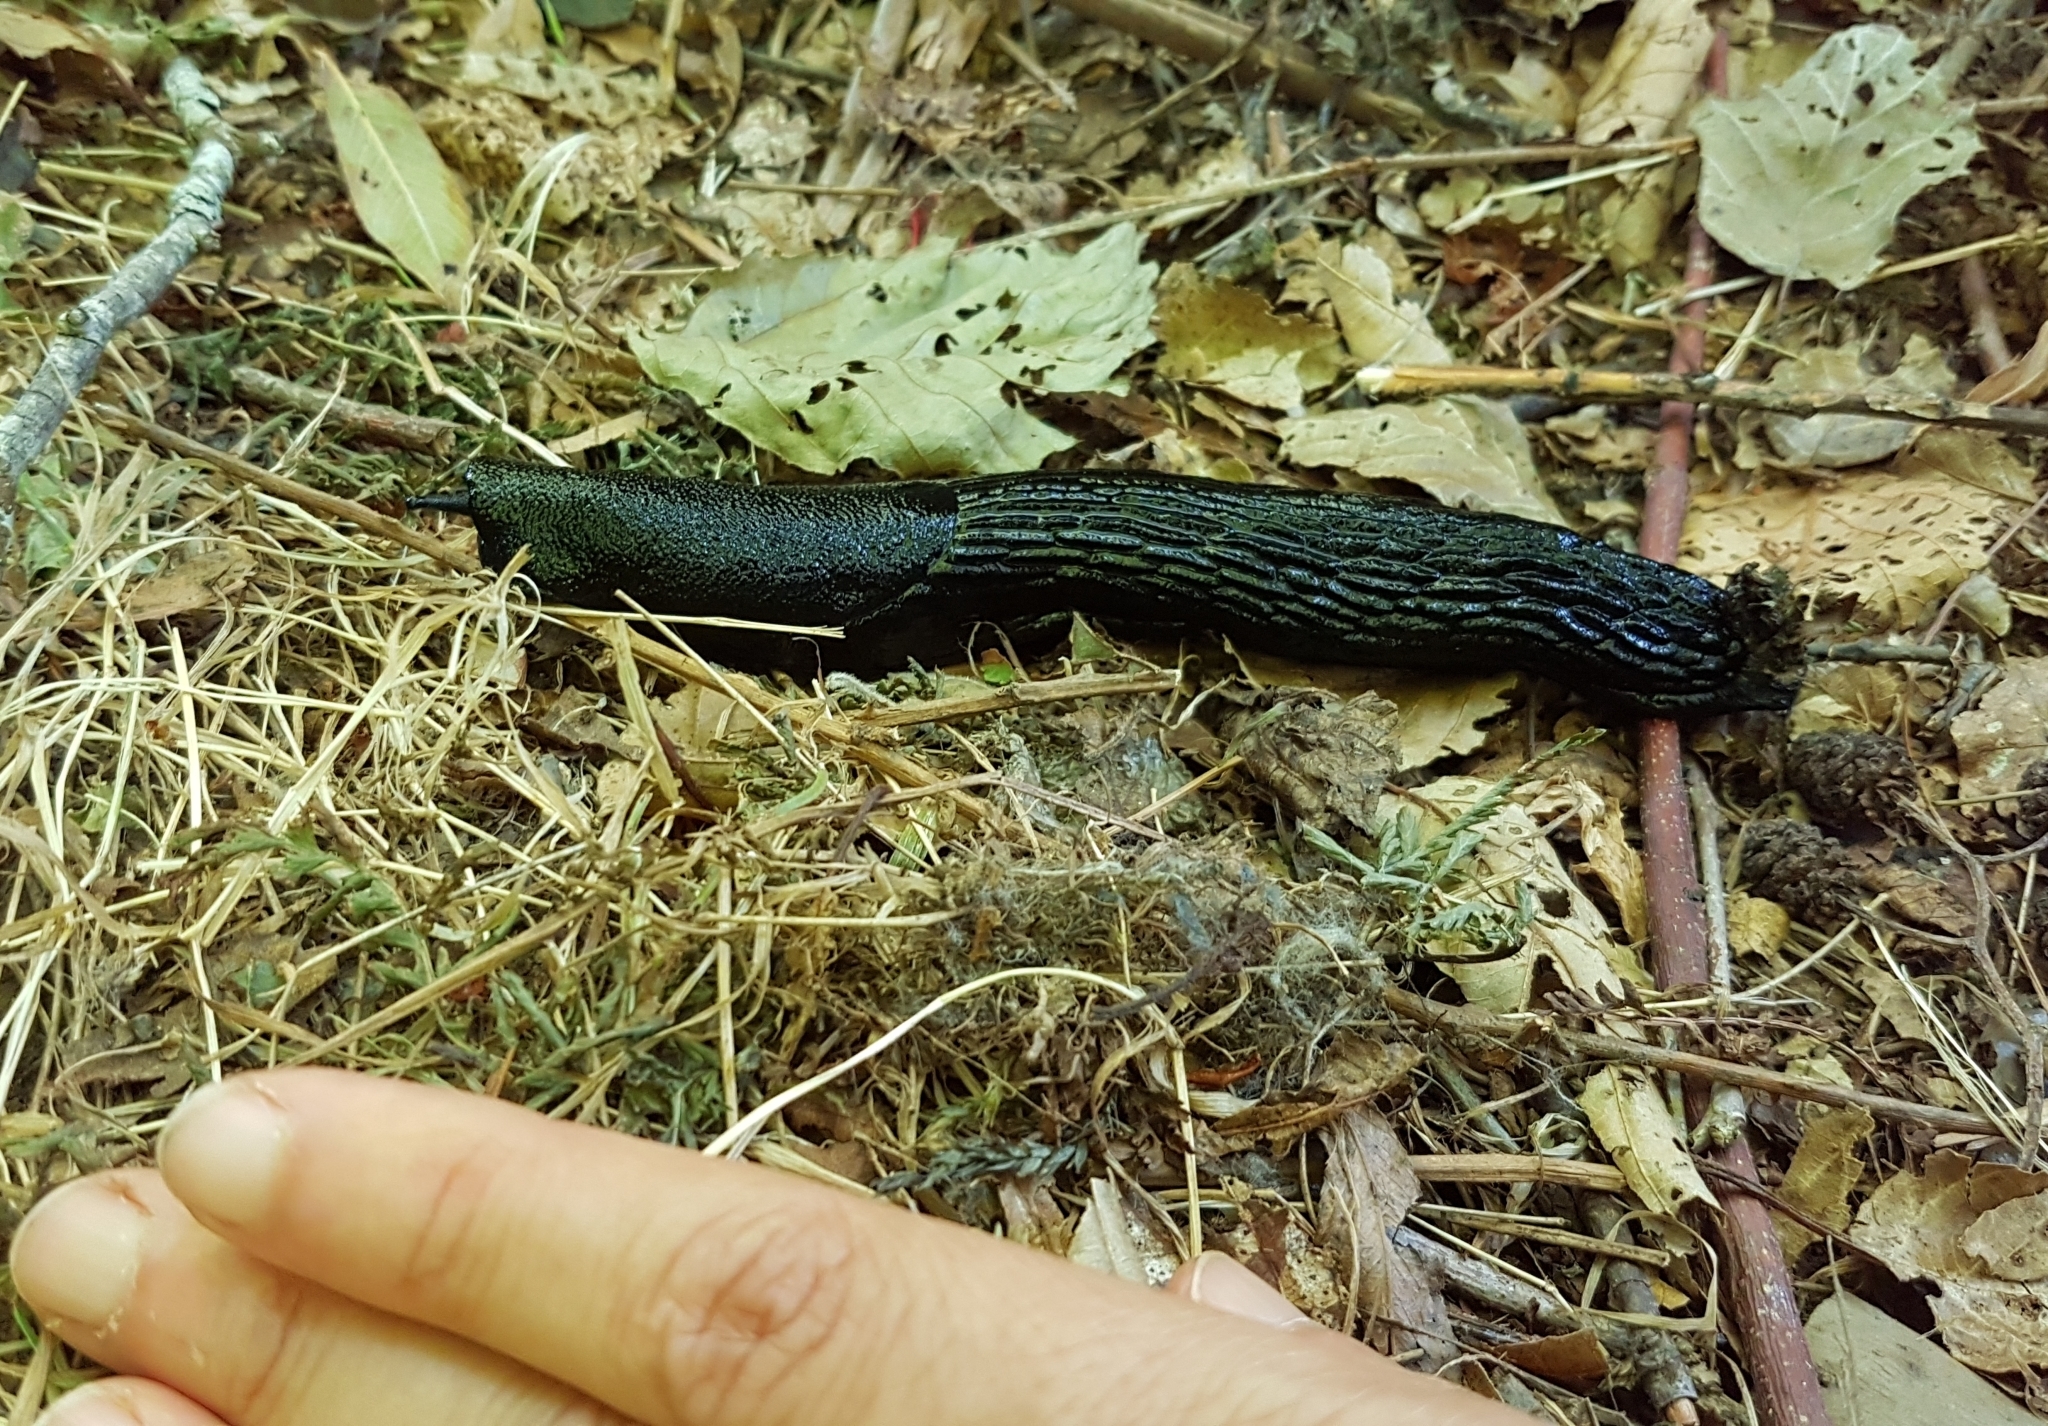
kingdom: Animalia
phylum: Mollusca
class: Gastropoda
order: Stylommatophora
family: Arionidae
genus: Arion
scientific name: Arion ater
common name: Black arion
